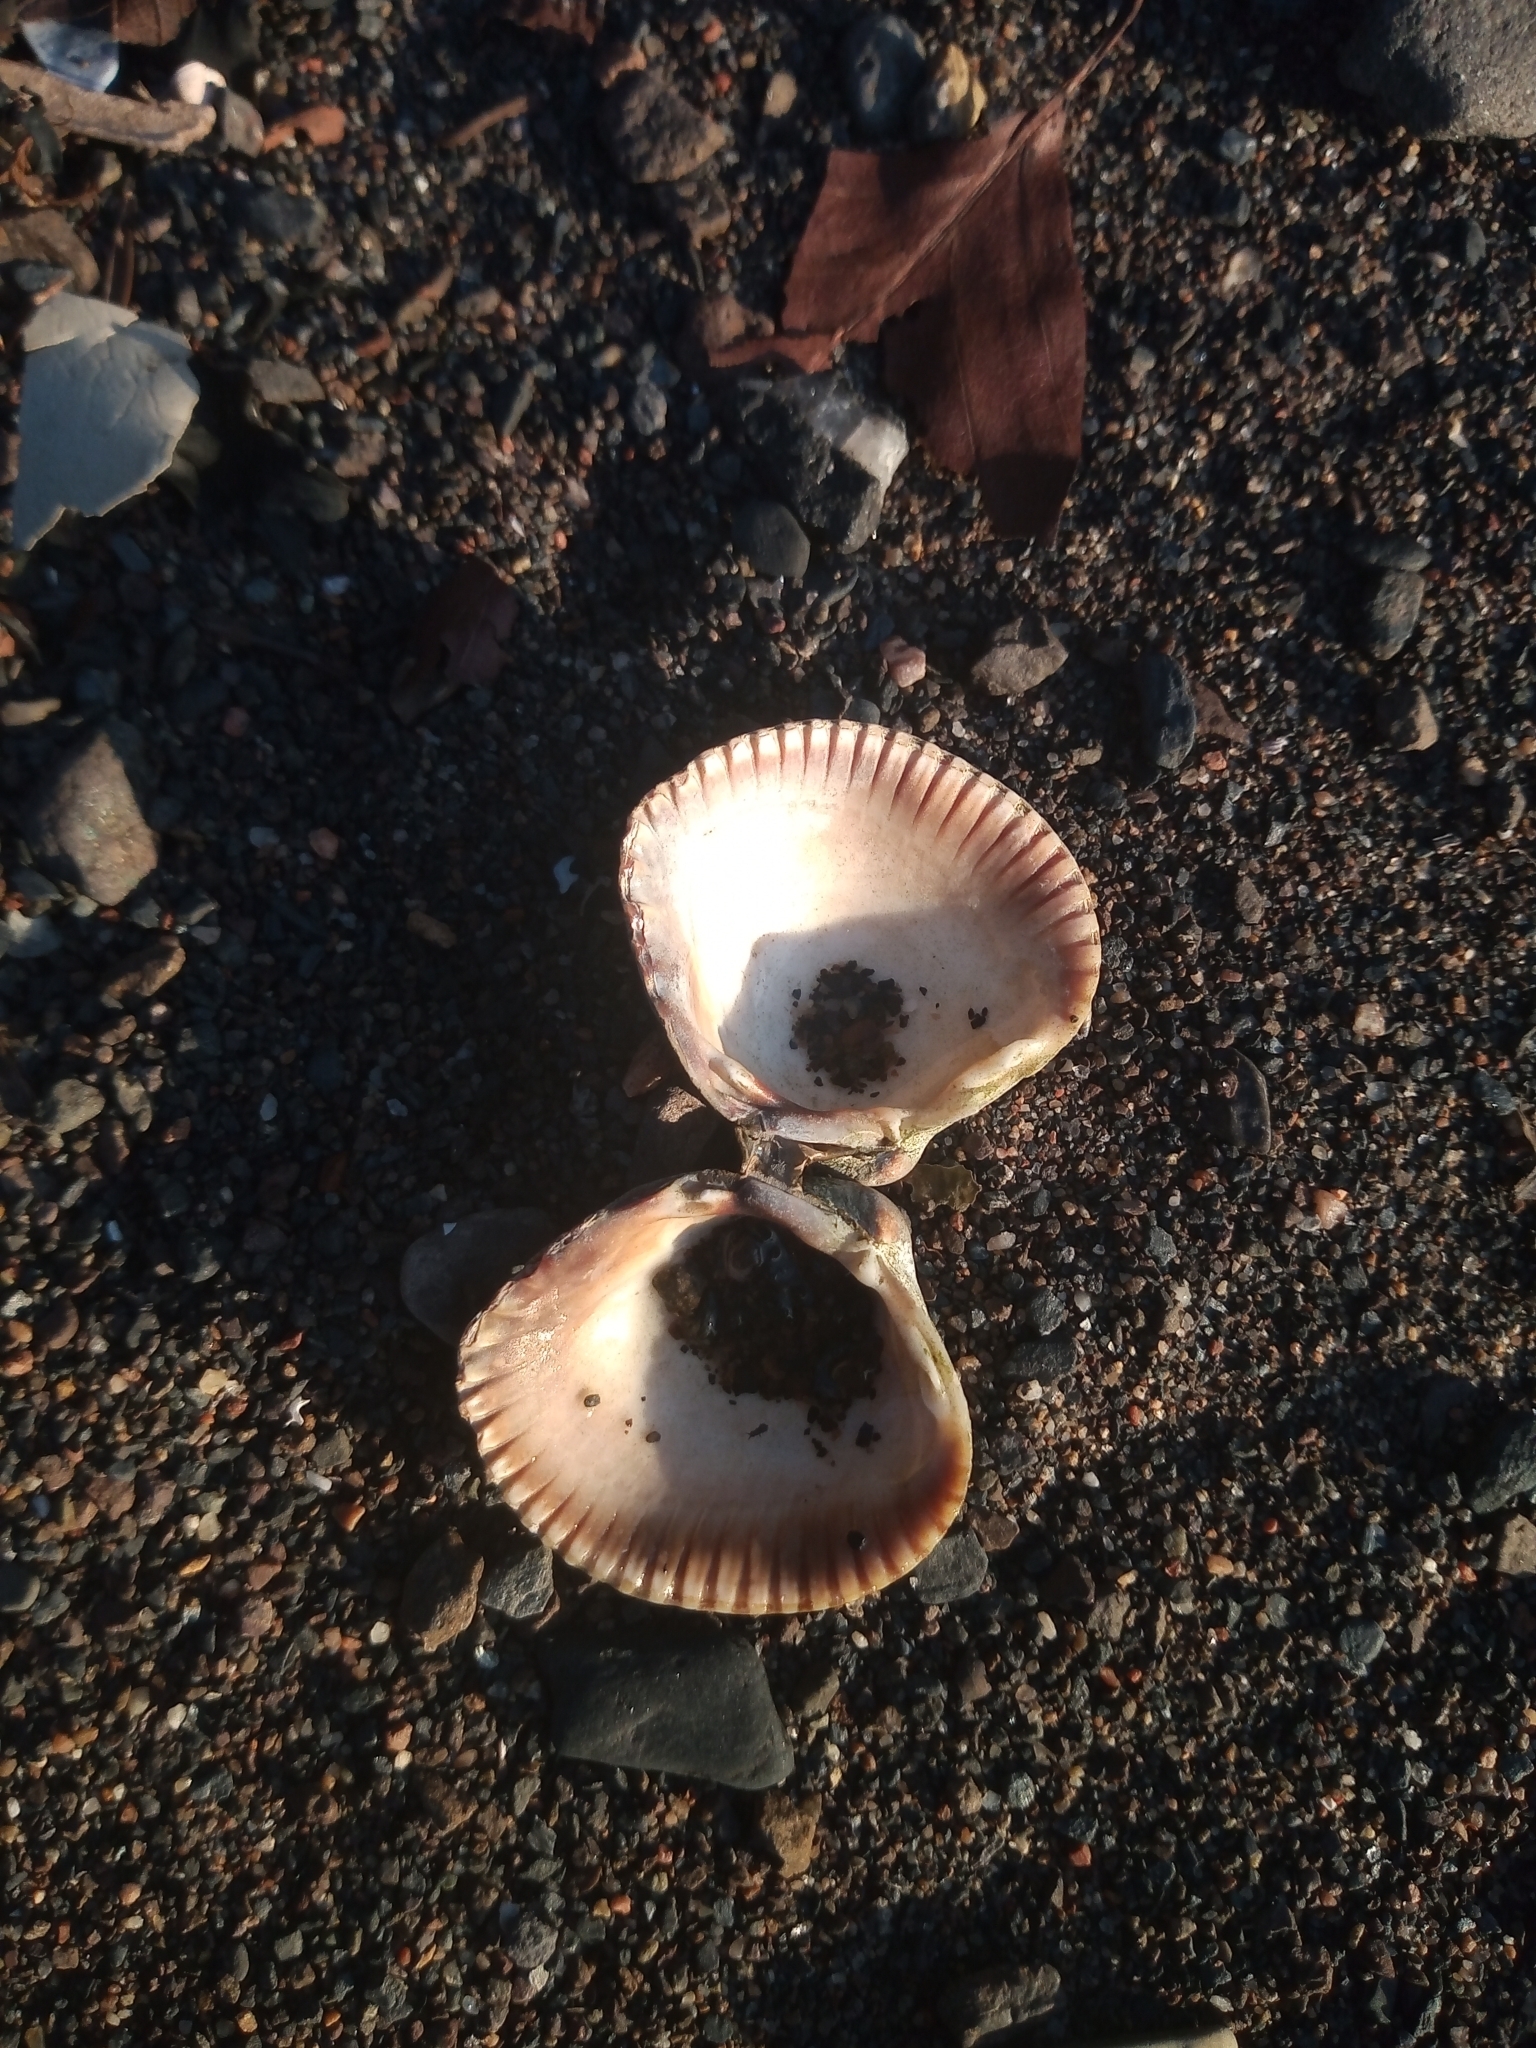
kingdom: Animalia
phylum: Mollusca
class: Bivalvia
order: Cardiida
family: Cardiidae
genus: Cerastoderma
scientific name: Cerastoderma edule
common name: Common cockle
